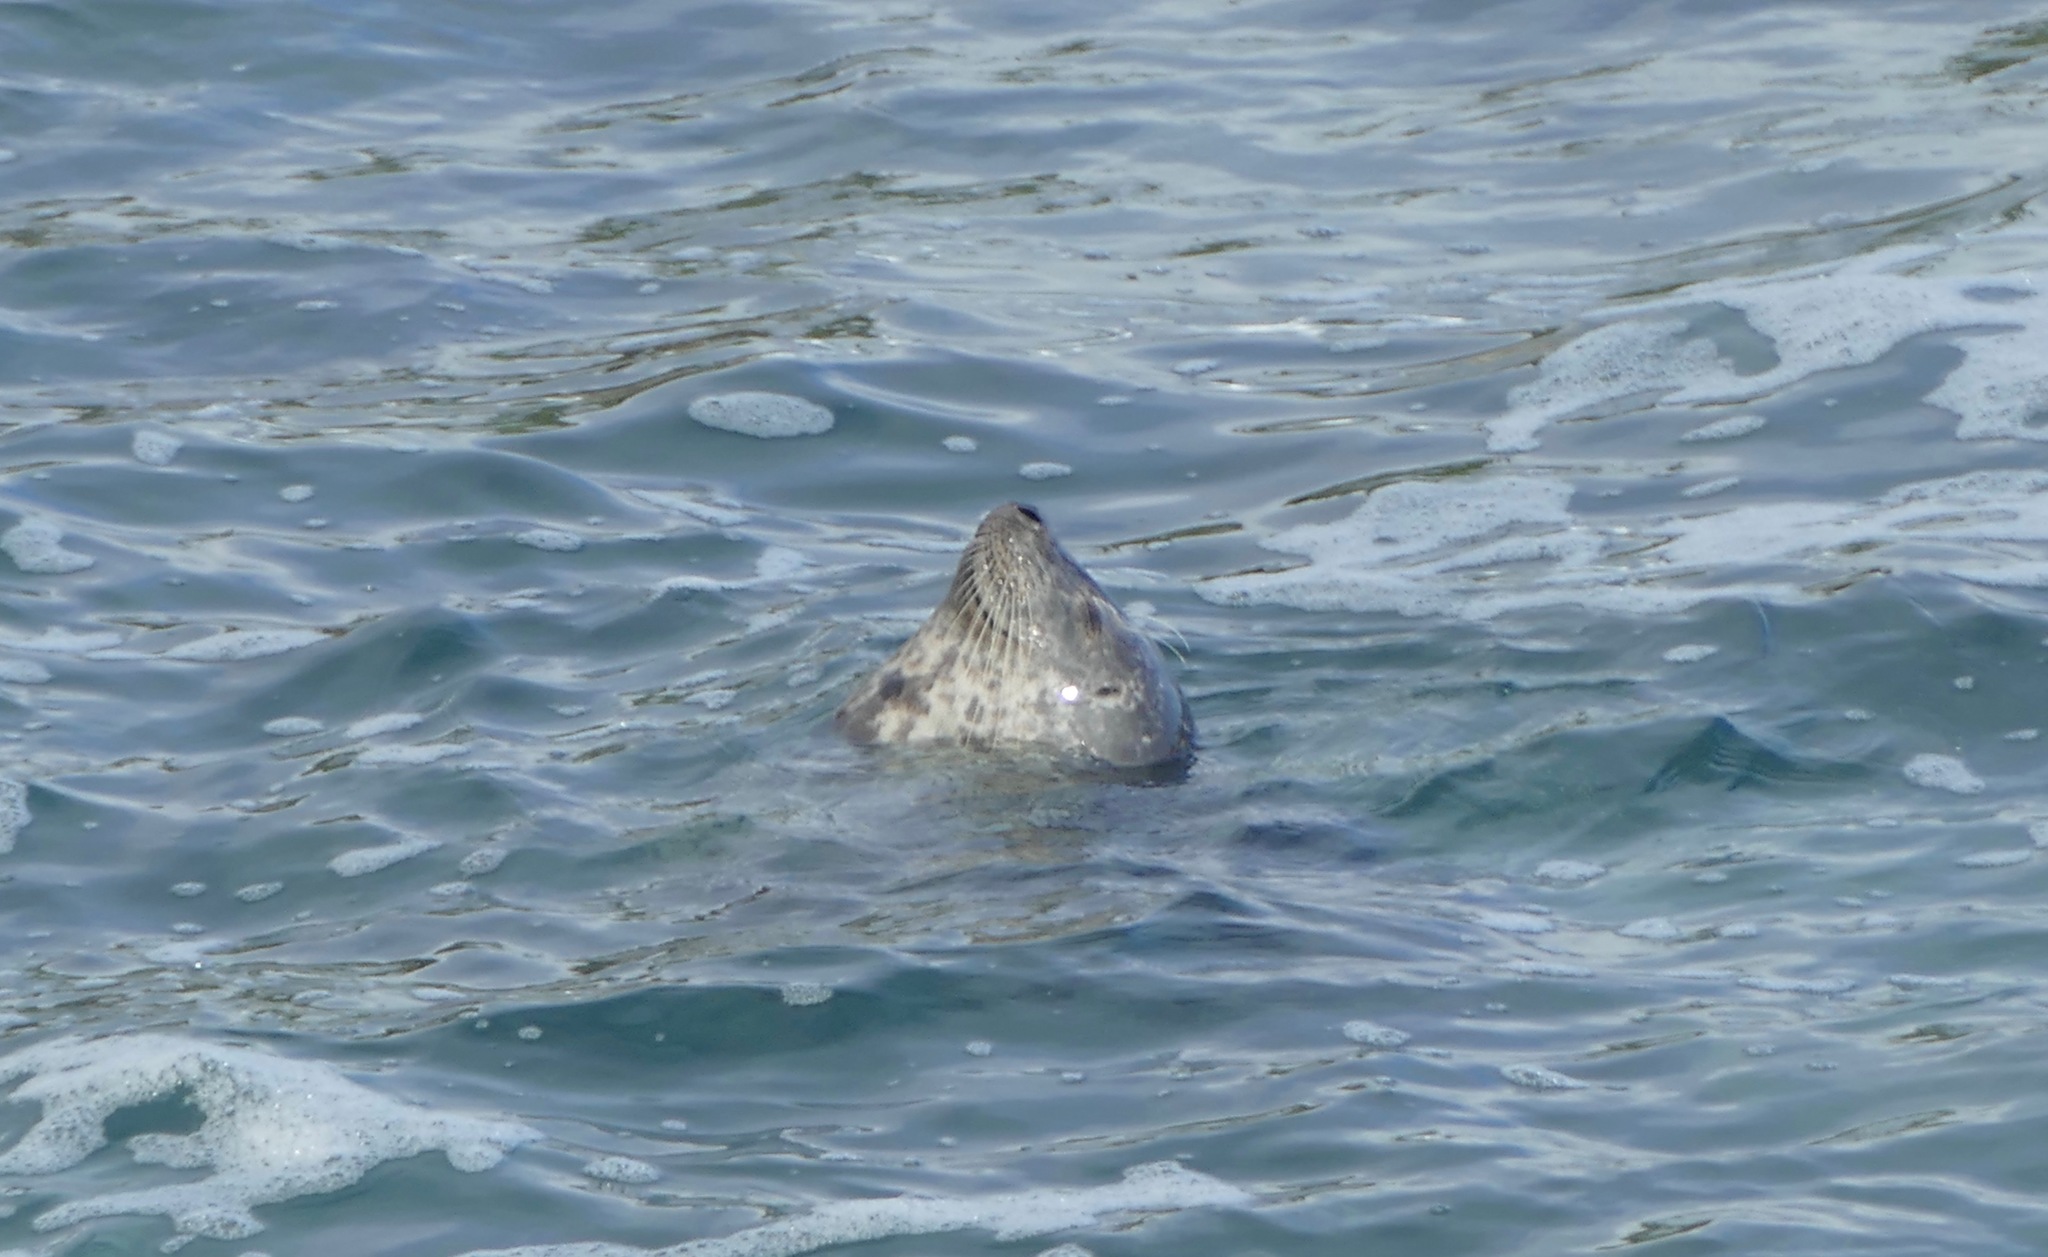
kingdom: Animalia
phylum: Chordata
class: Mammalia
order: Carnivora
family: Phocidae
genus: Phoca
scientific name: Phoca vitulina
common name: Harbor seal
